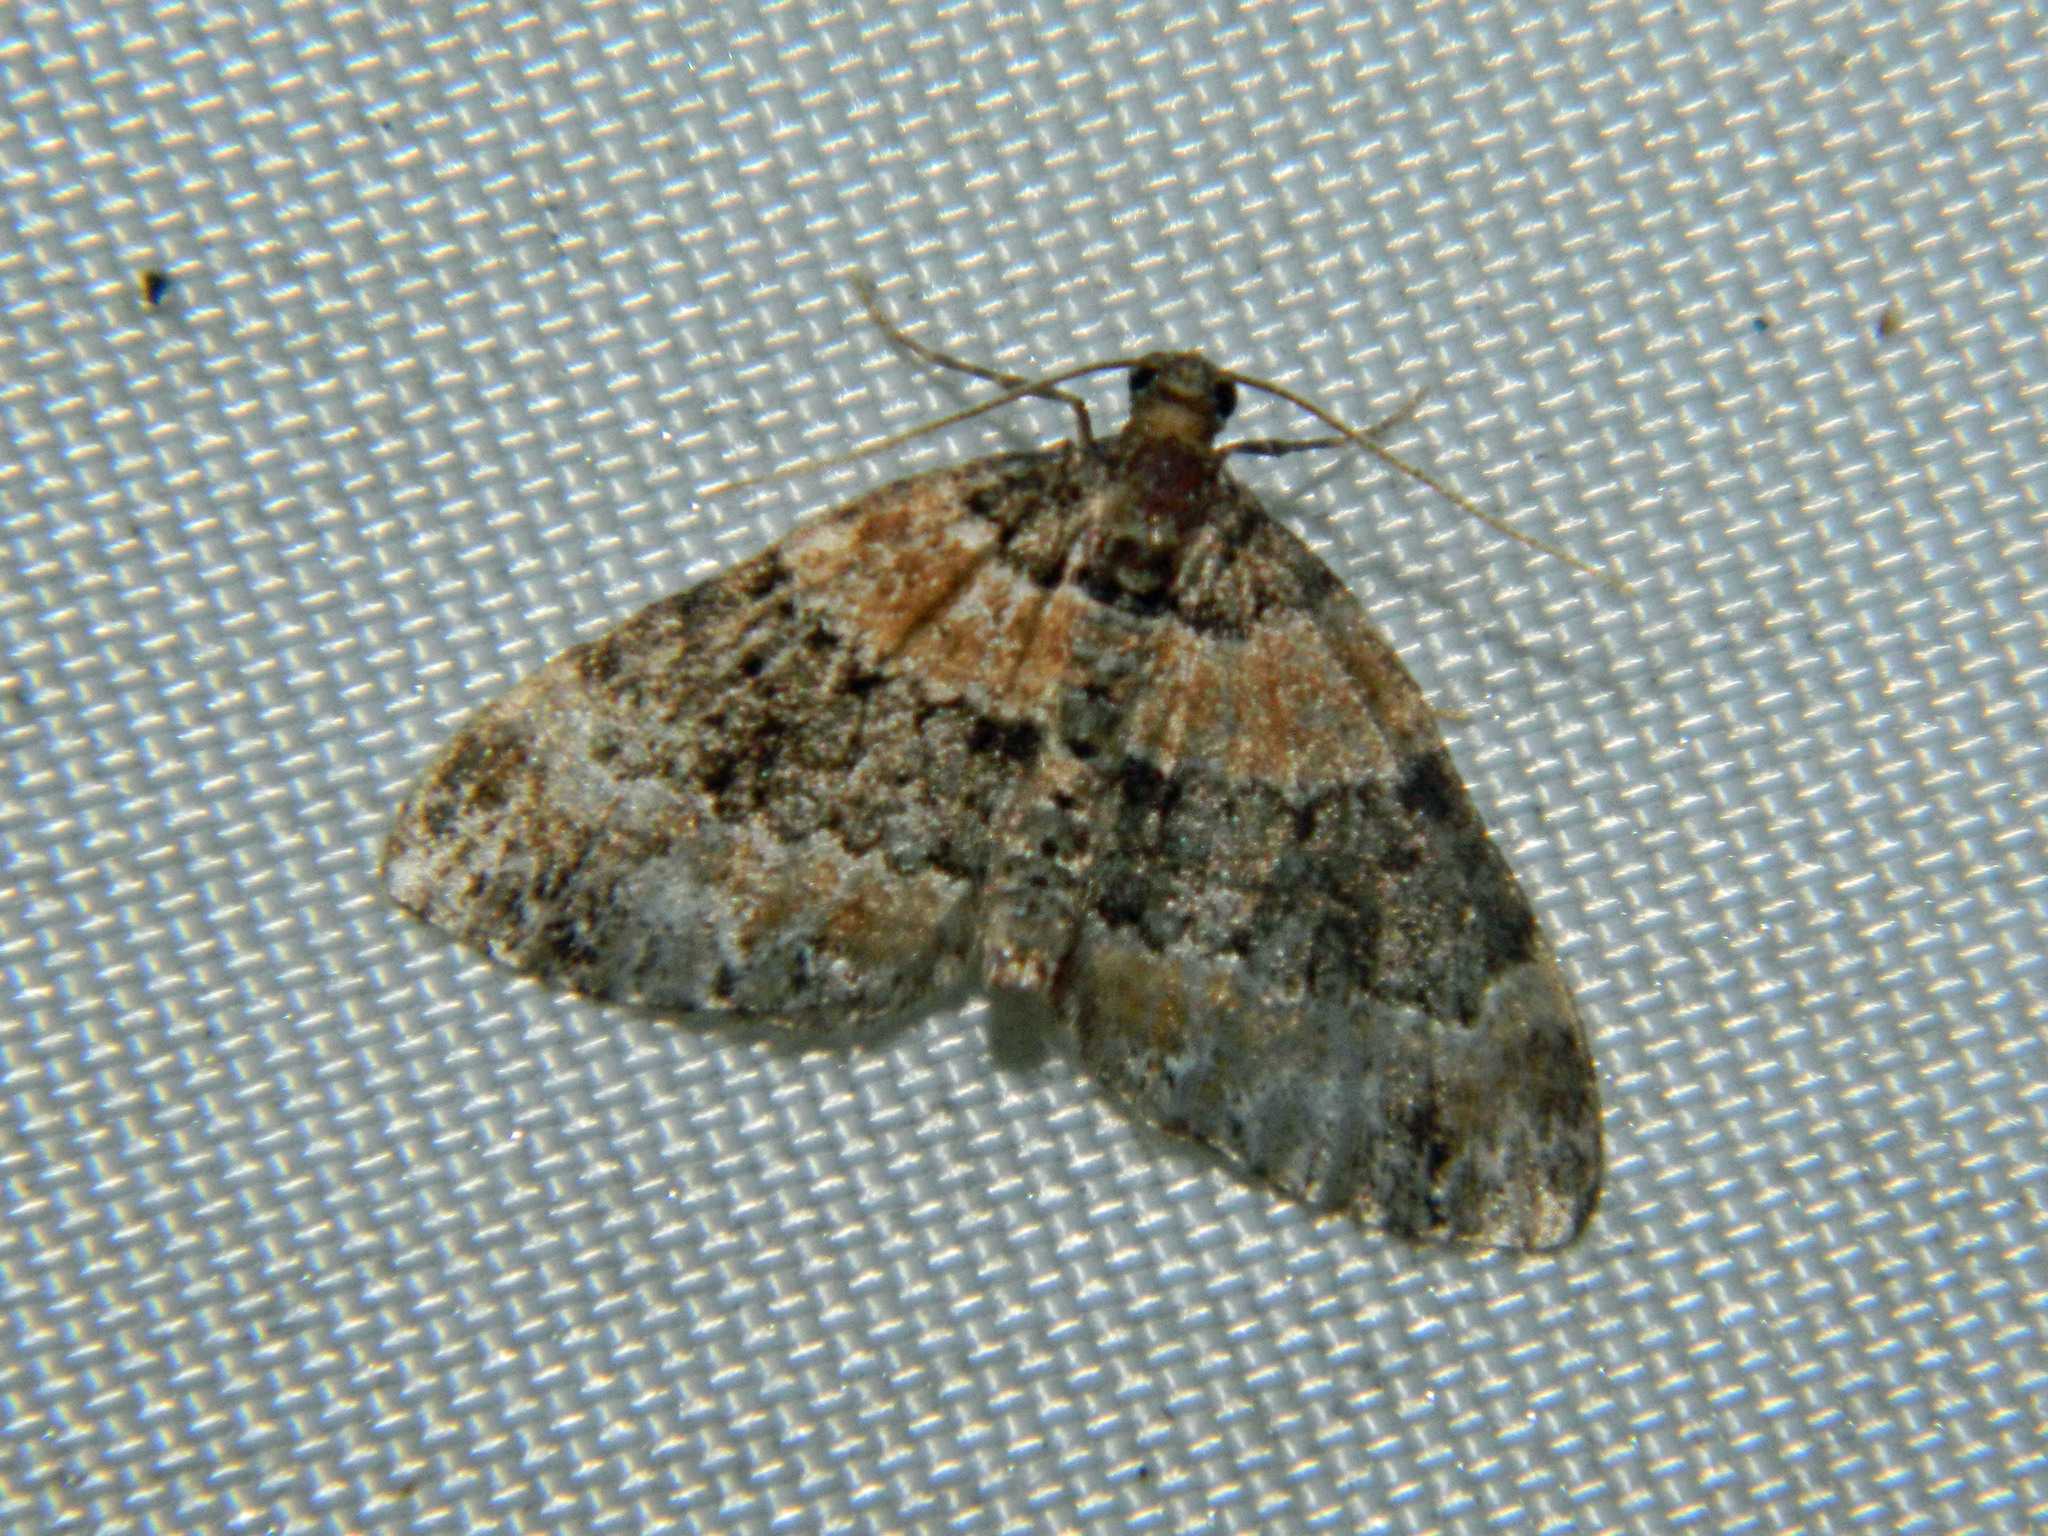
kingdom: Animalia
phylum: Arthropoda
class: Insecta
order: Lepidoptera
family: Geometridae
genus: Martania
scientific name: Martania
